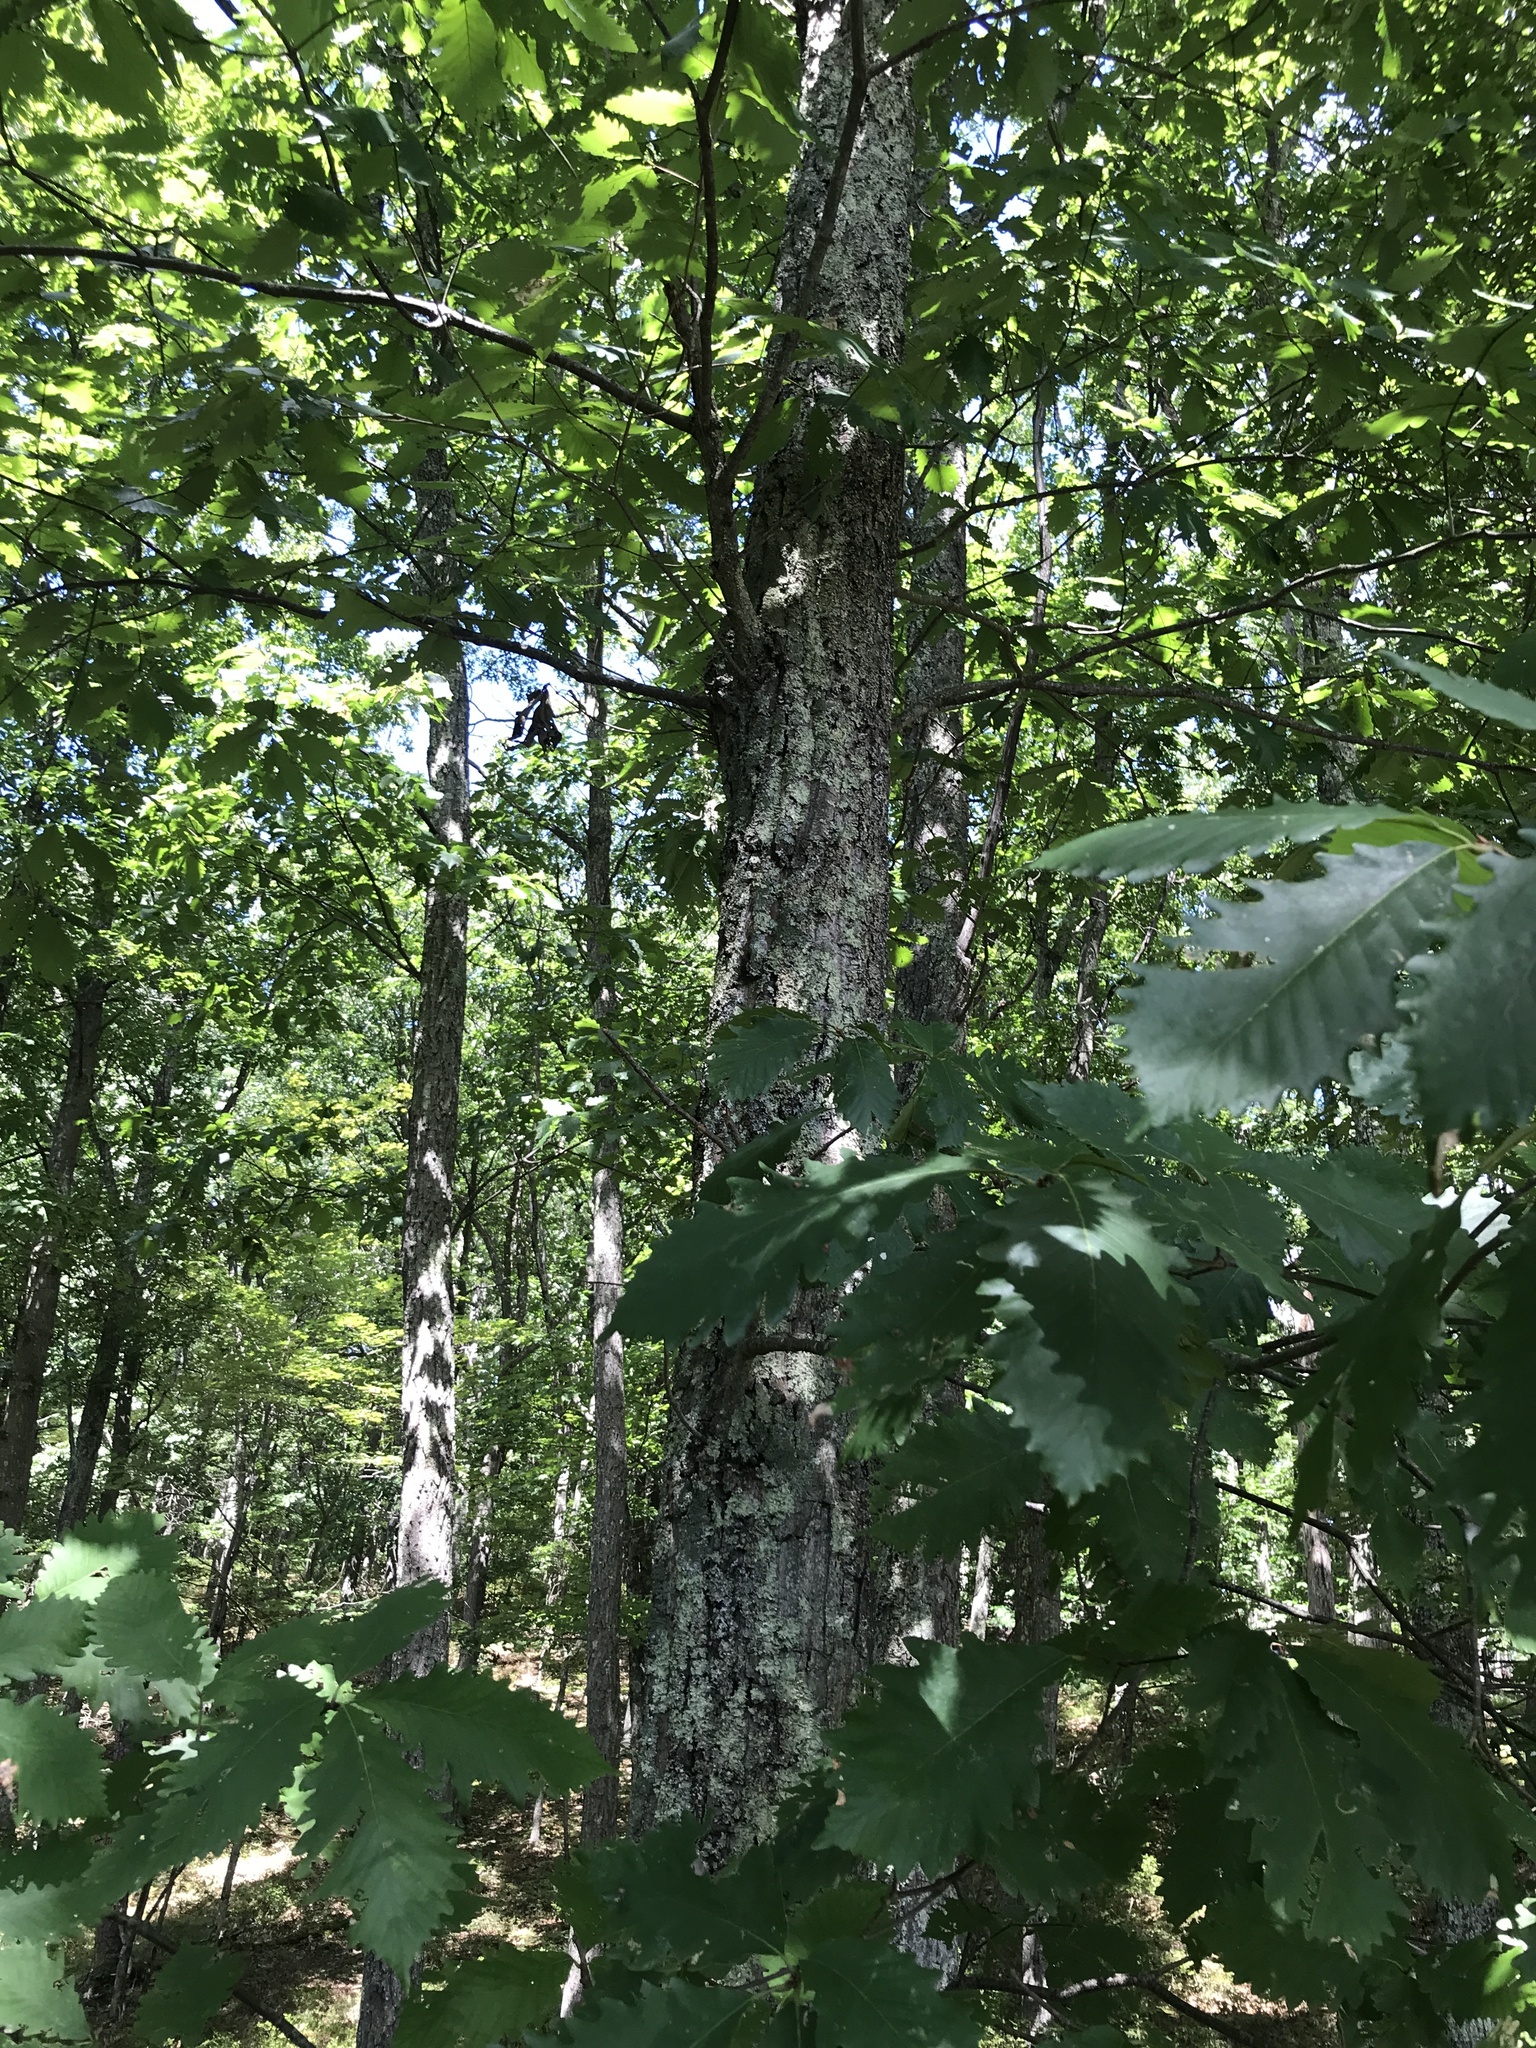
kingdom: Plantae
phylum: Tracheophyta
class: Magnoliopsida
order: Fagales
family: Fagaceae
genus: Quercus
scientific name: Quercus montana
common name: Chestnut oak
